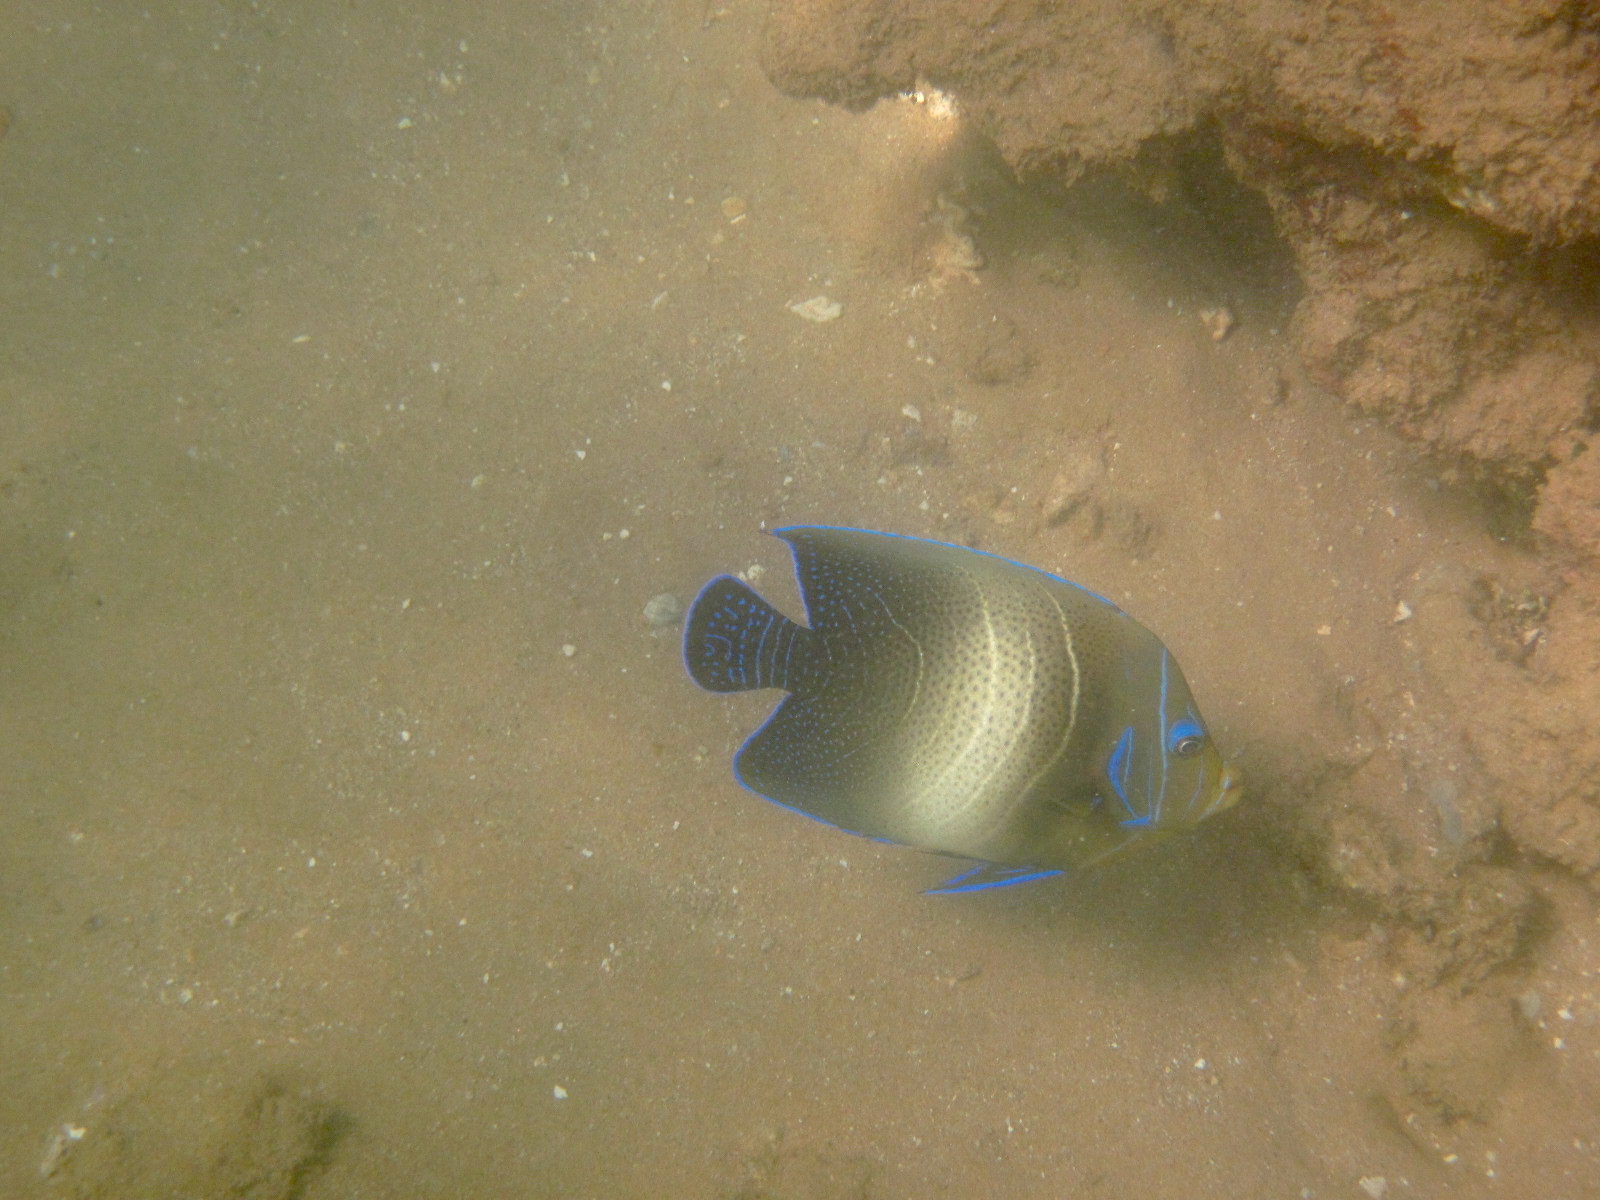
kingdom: Animalia
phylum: Chordata
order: Perciformes
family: Pomacanthidae
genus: Pomacanthus
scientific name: Pomacanthus semicirculatus
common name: Semicircle angelfish
